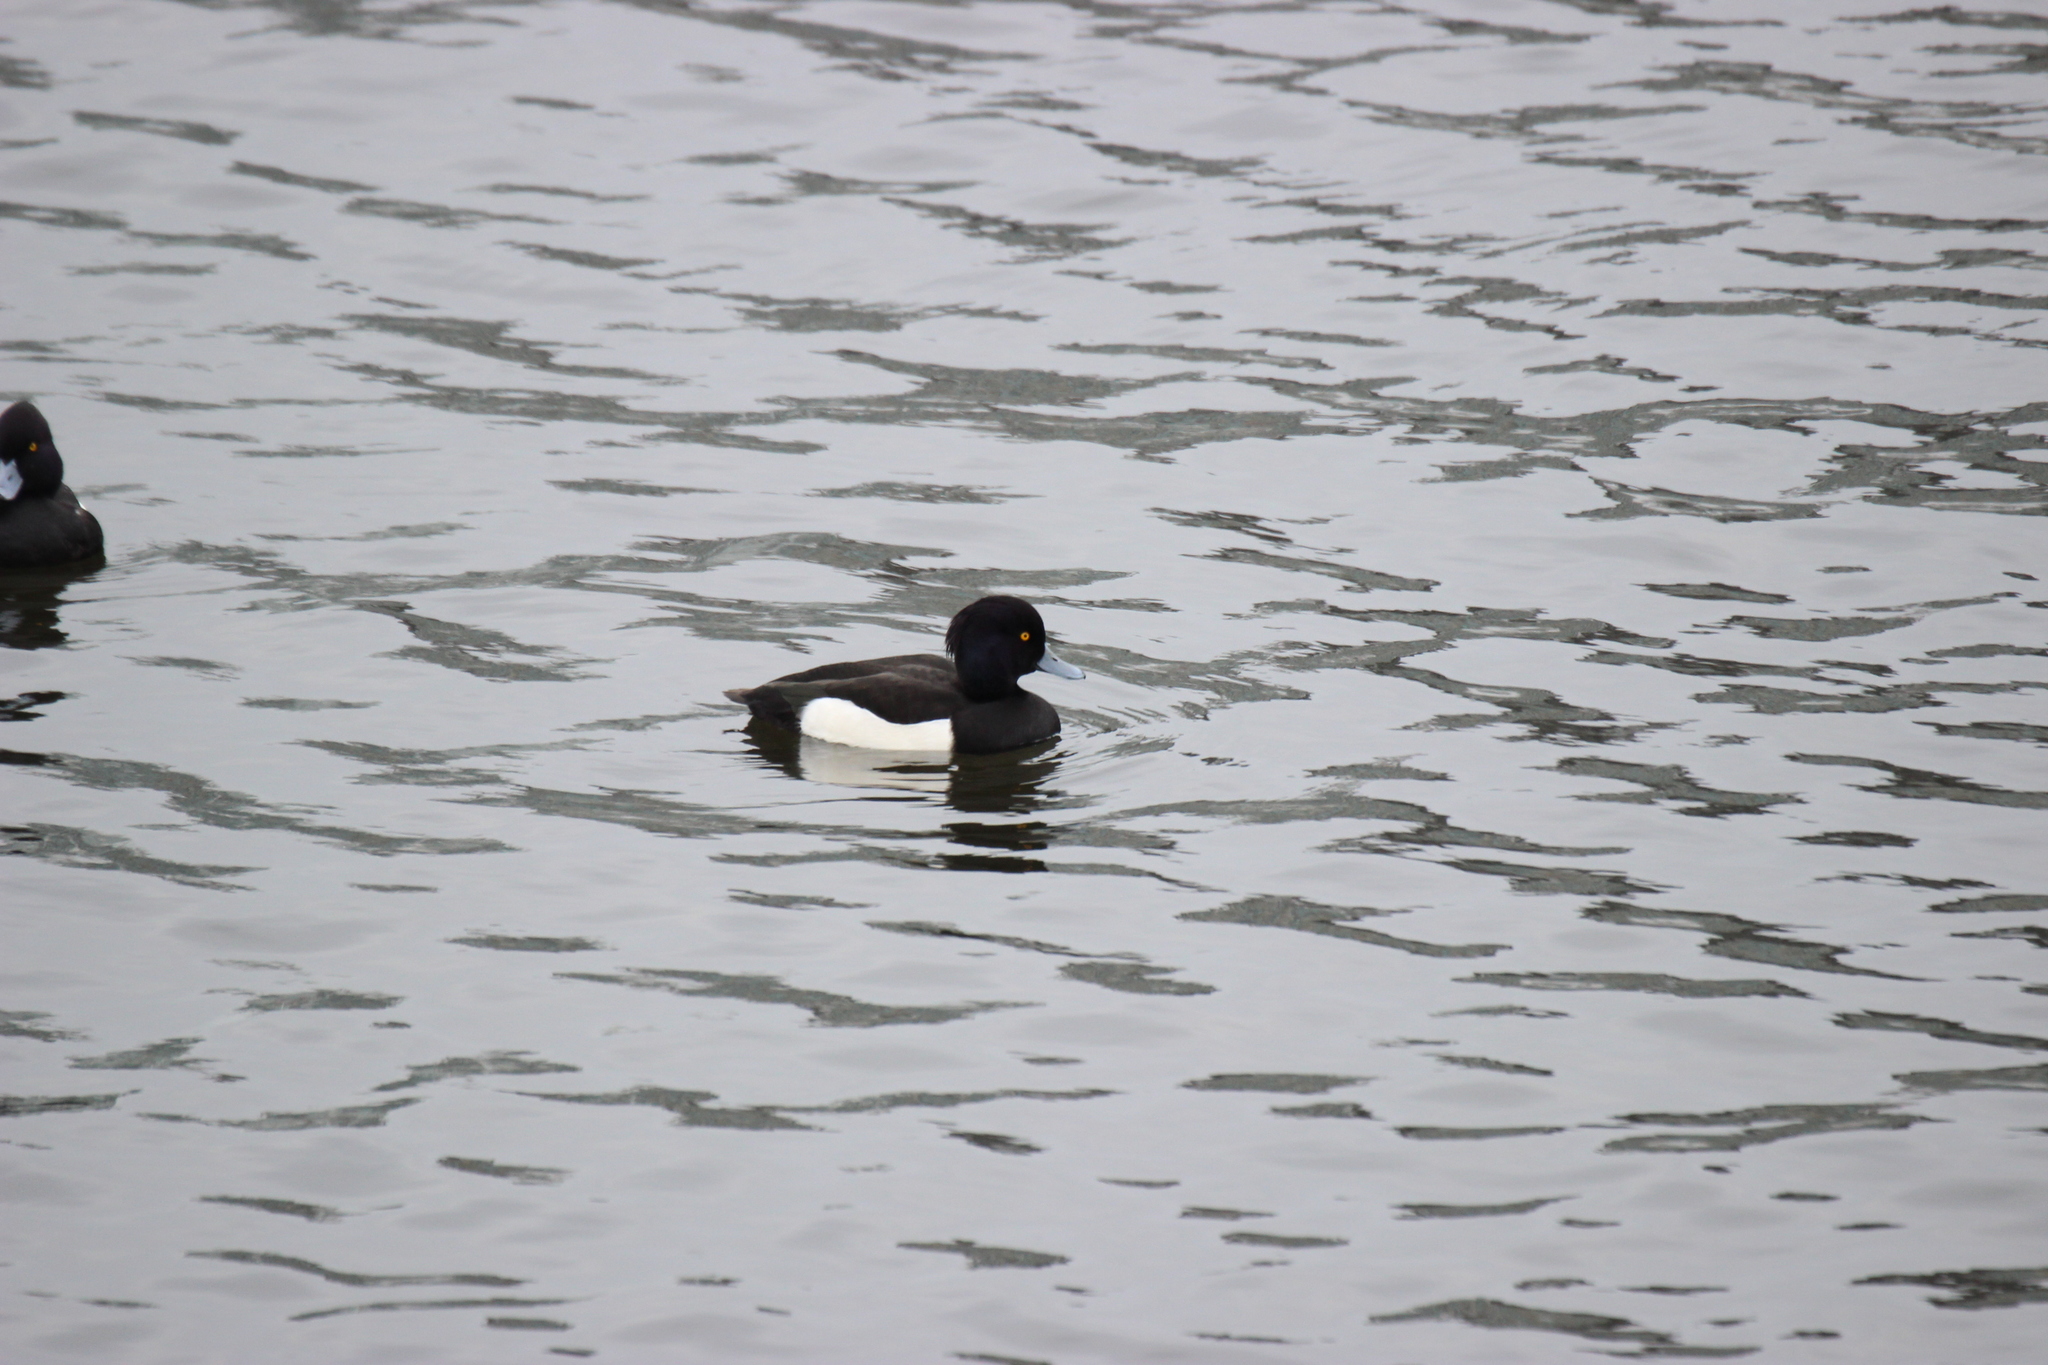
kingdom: Animalia
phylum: Chordata
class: Aves
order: Anseriformes
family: Anatidae
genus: Aythya
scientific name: Aythya fuligula
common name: Tufted duck
